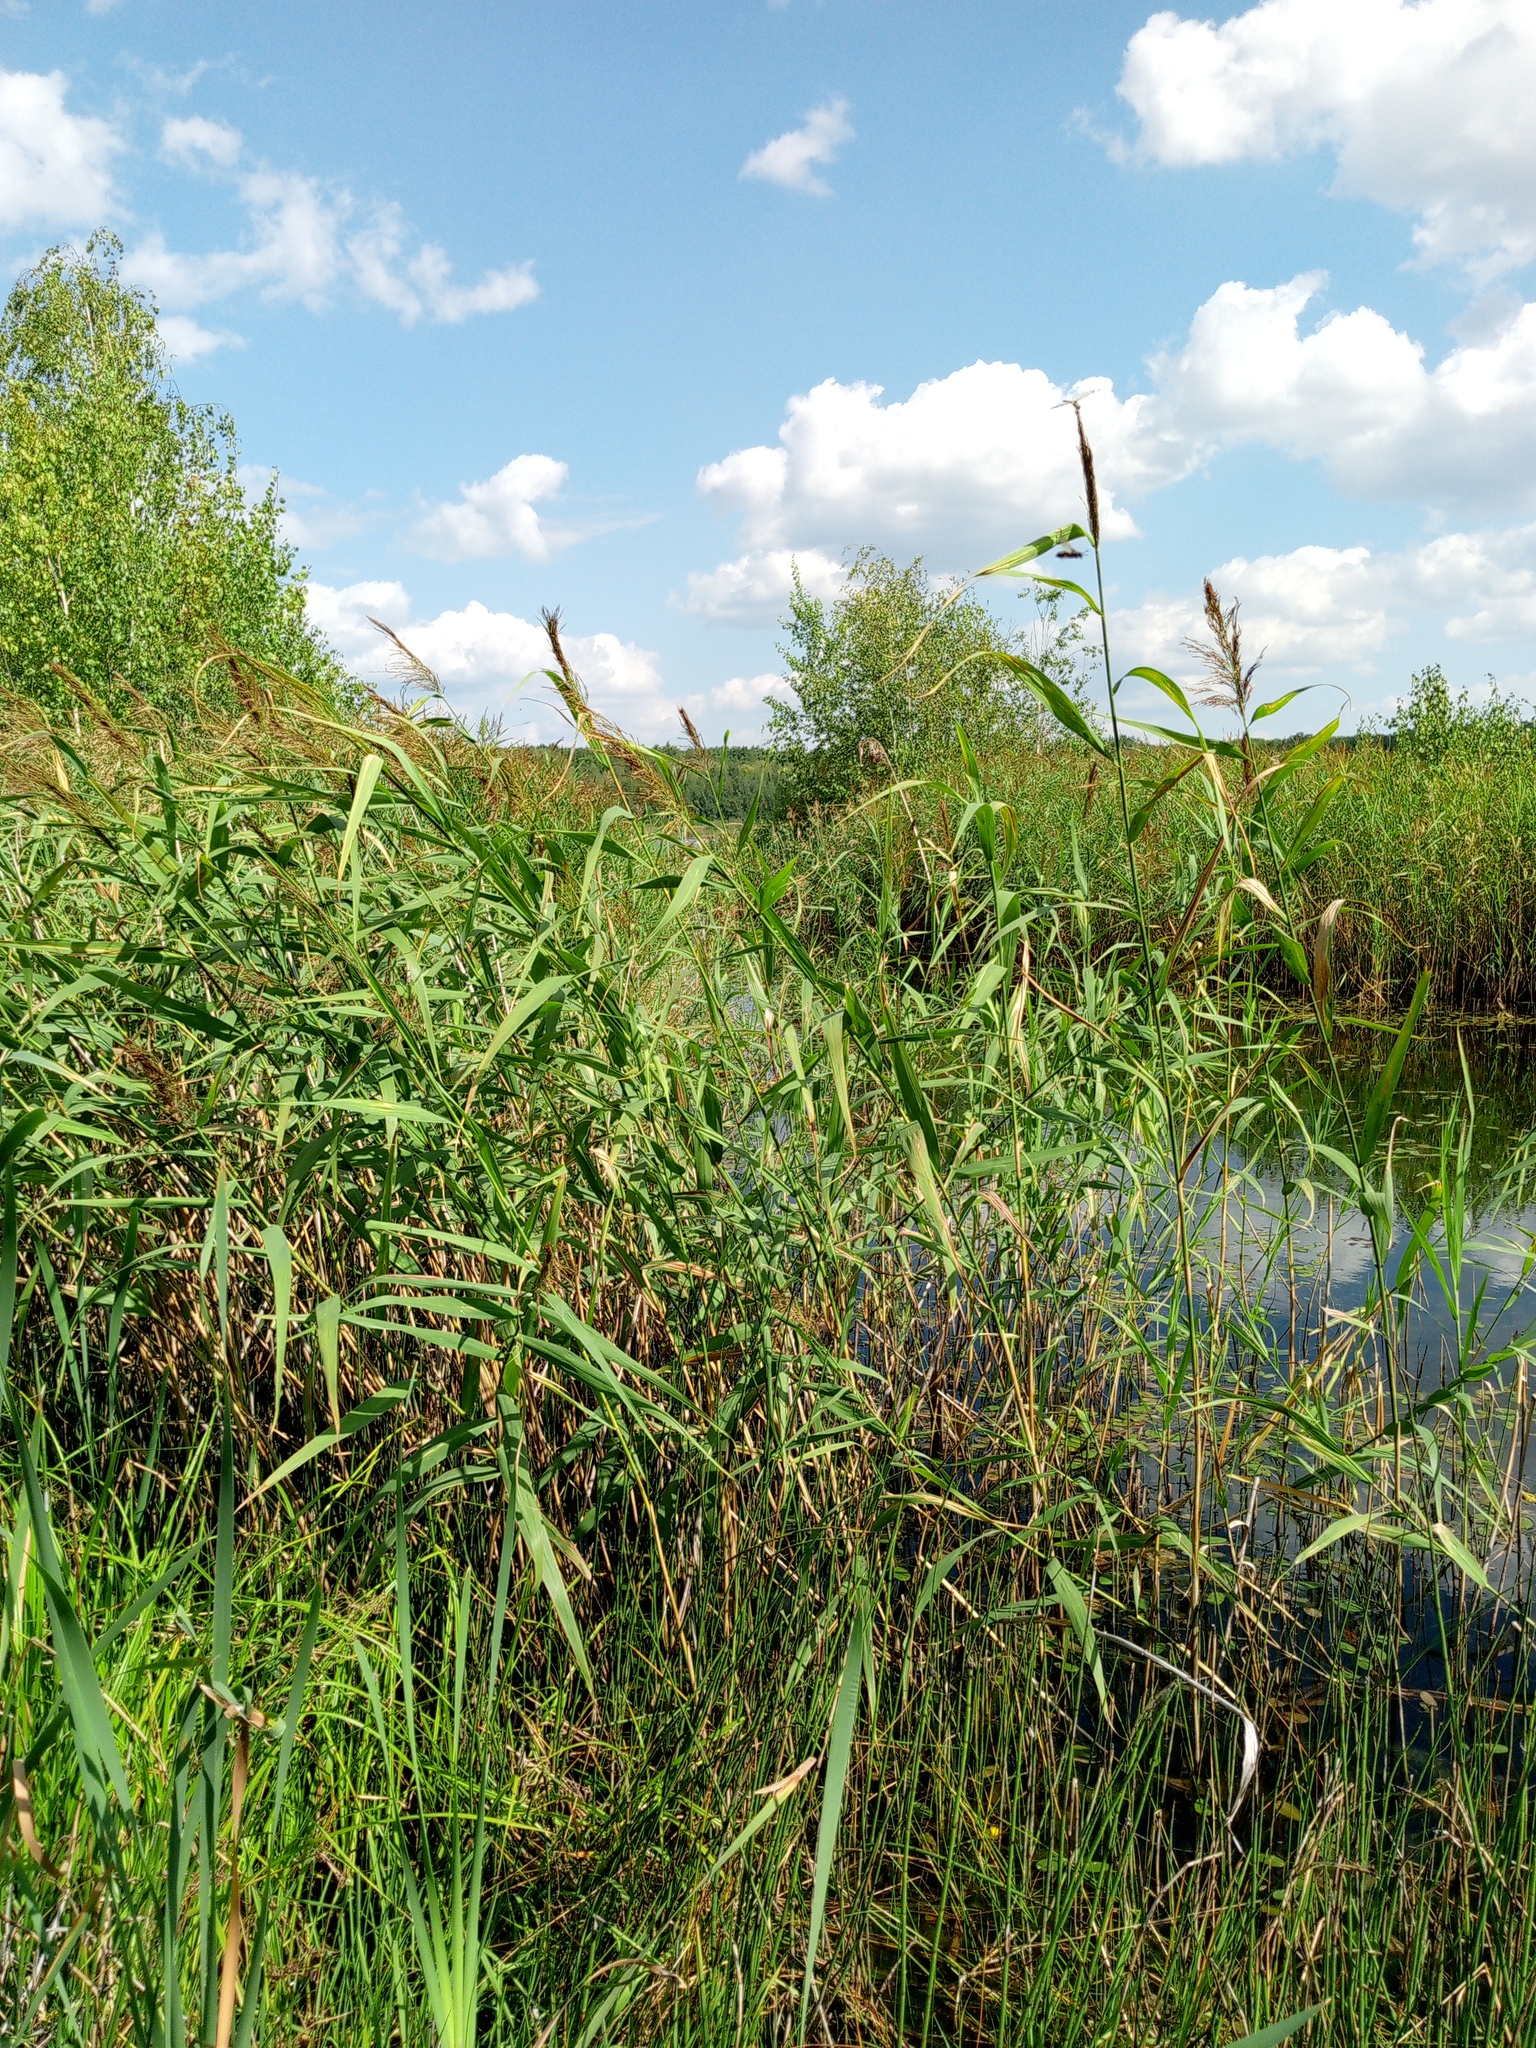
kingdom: Plantae
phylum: Tracheophyta
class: Liliopsida
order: Poales
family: Poaceae
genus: Phragmites
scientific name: Phragmites australis
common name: Common reed
